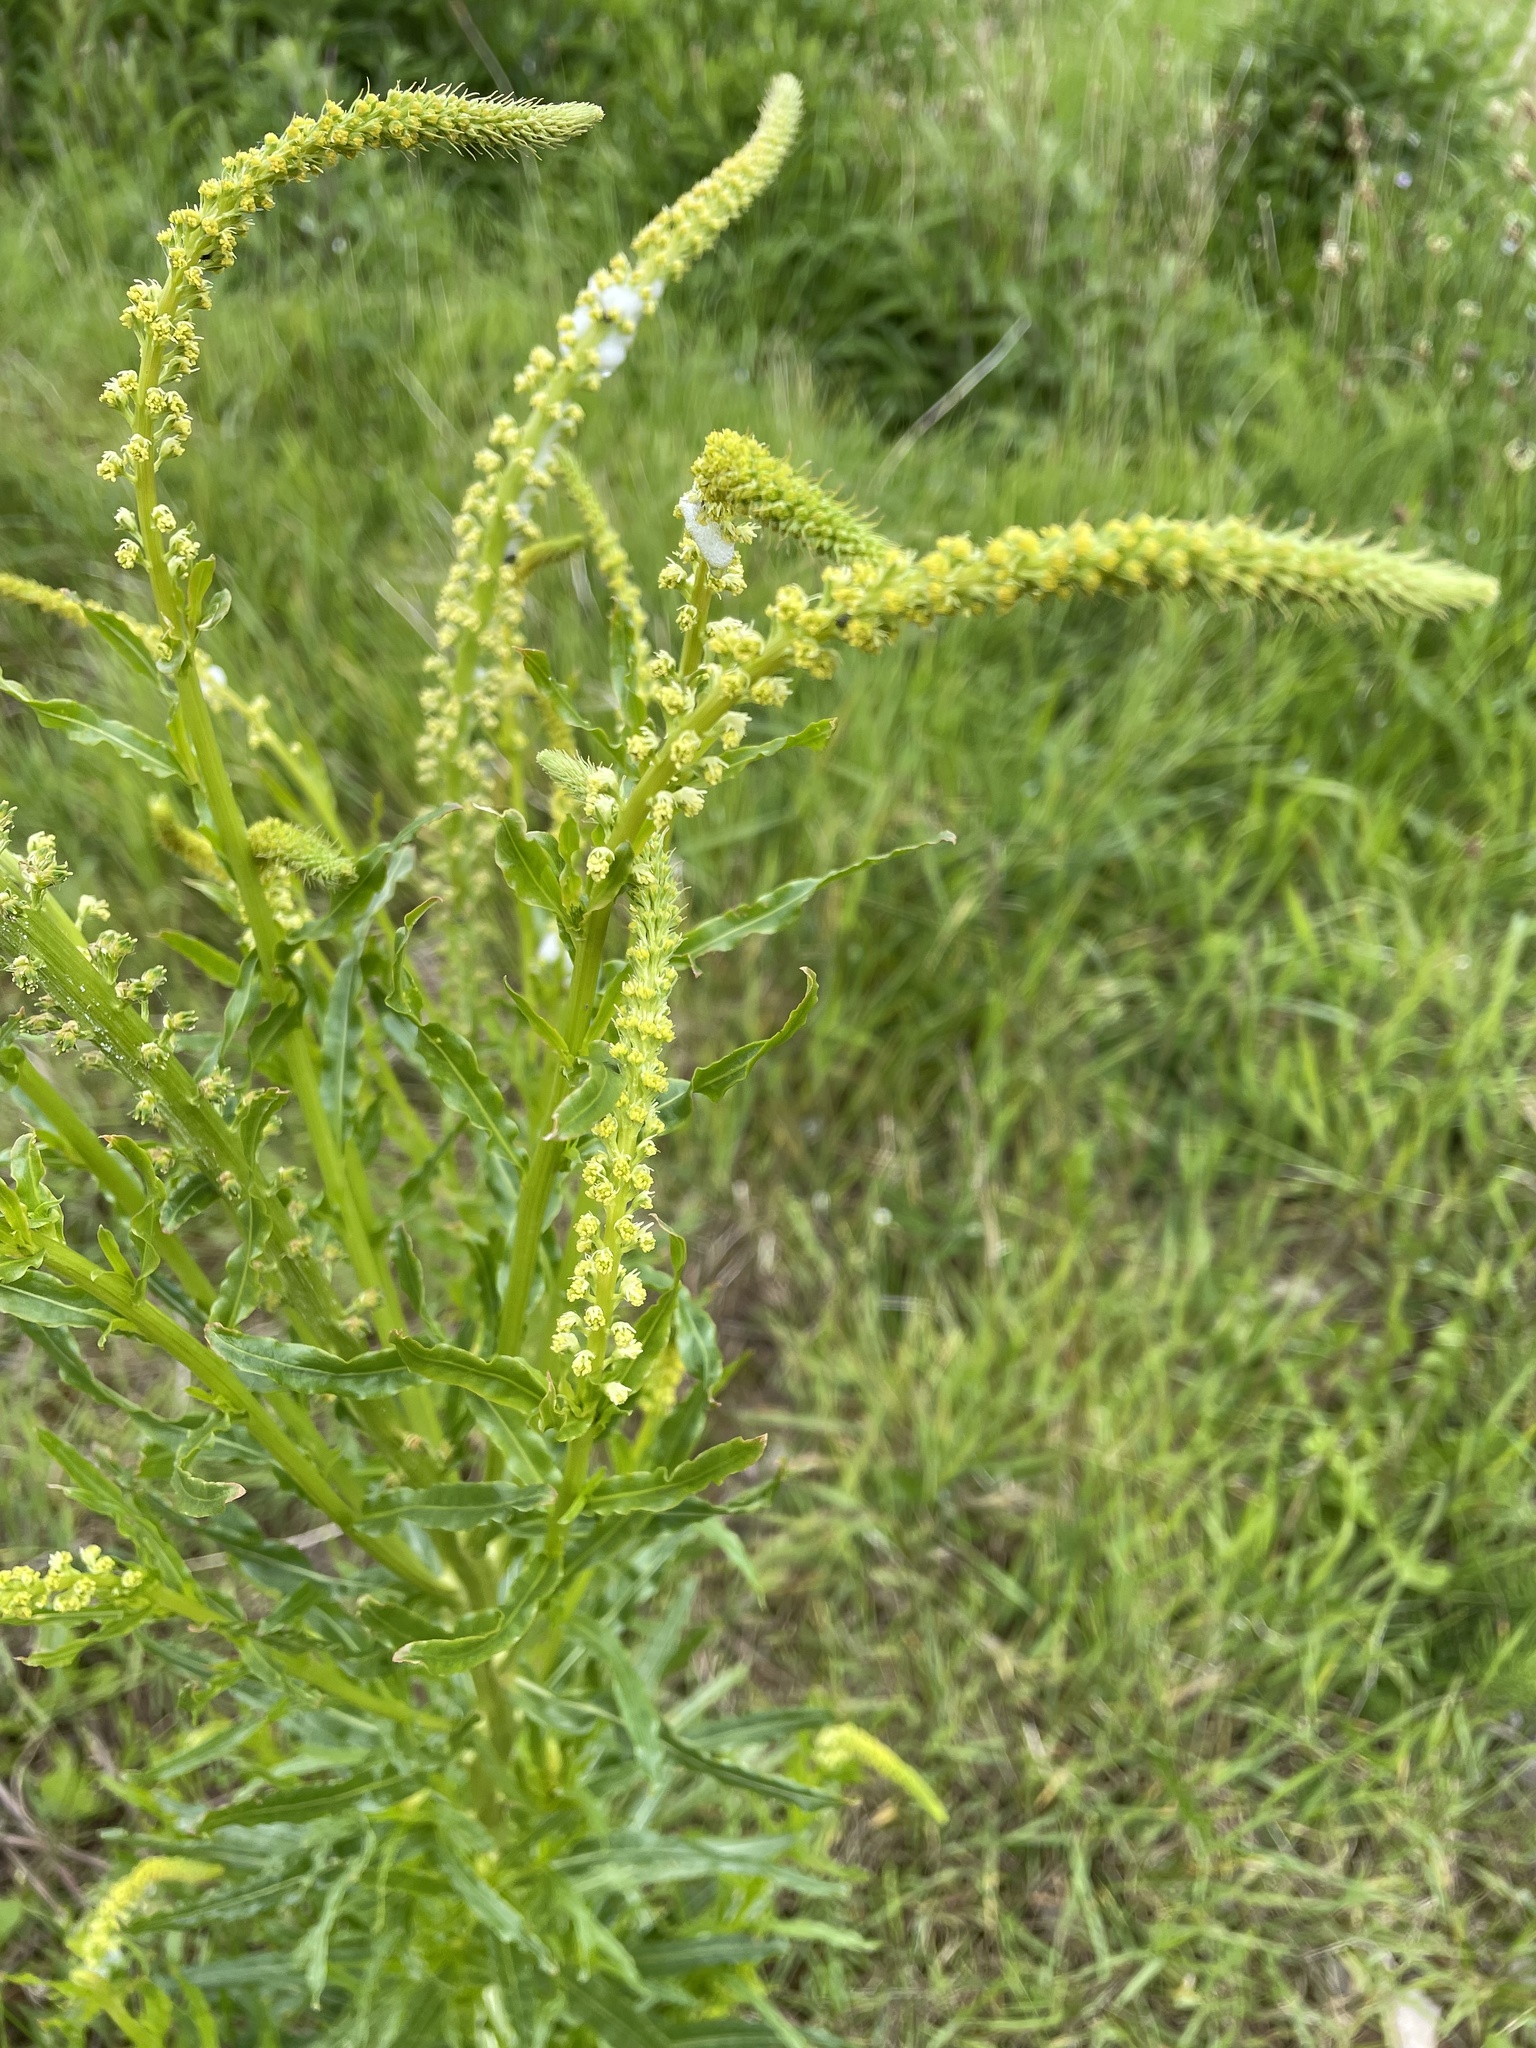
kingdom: Plantae
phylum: Tracheophyta
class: Magnoliopsida
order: Brassicales
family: Resedaceae
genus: Reseda
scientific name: Reseda luteola
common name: Weld
